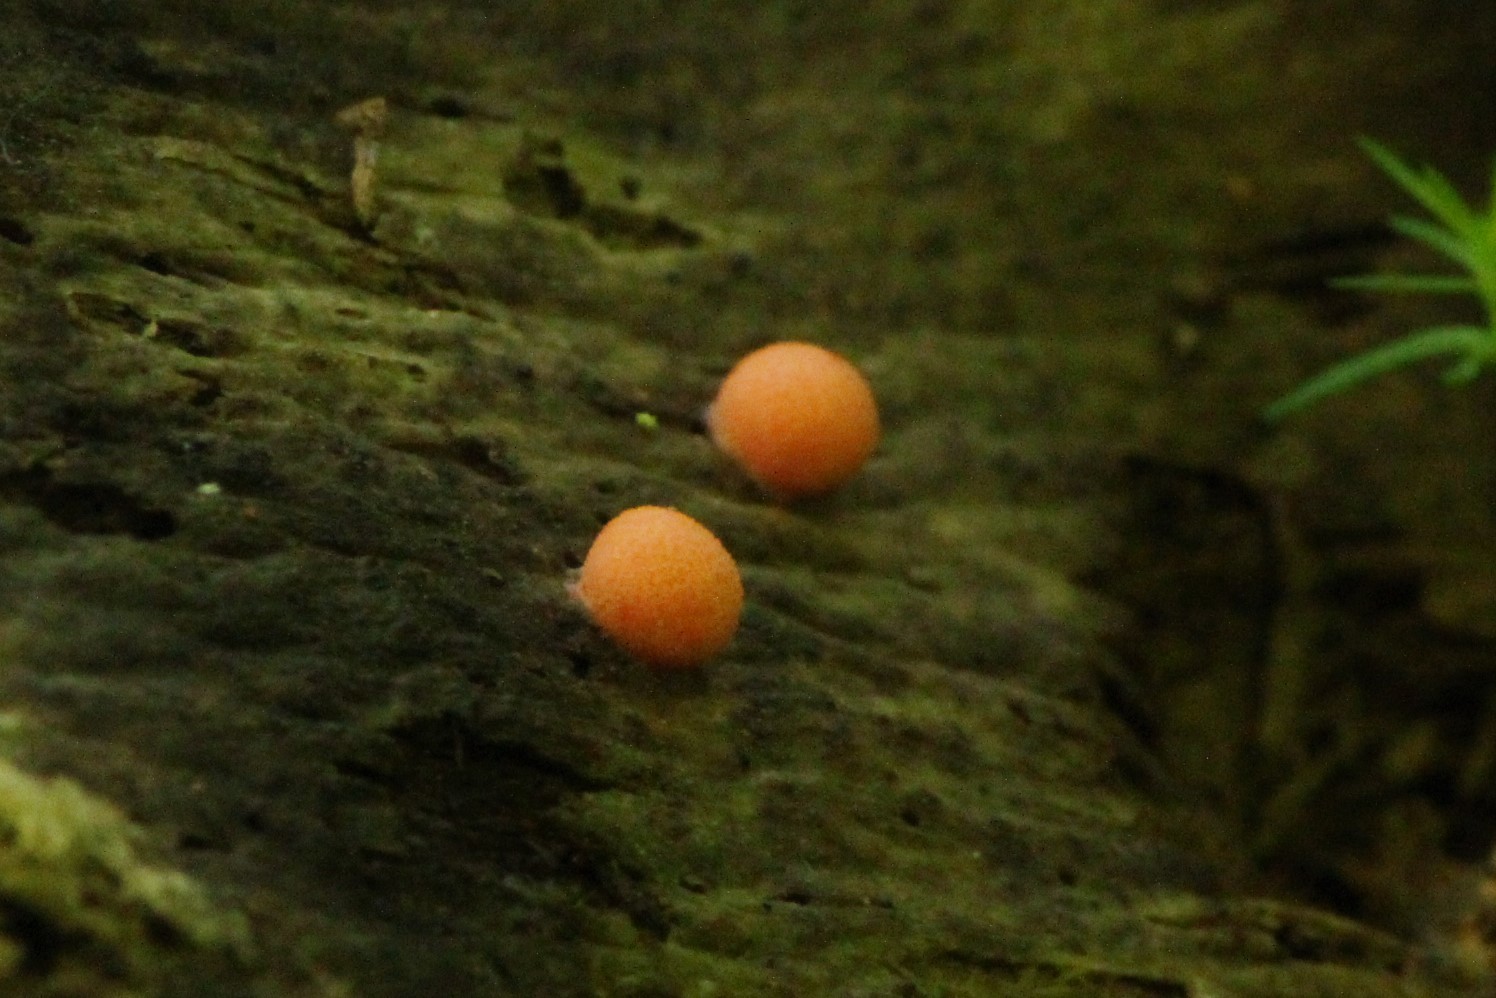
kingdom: Protozoa
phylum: Mycetozoa
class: Myxomycetes
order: Cribrariales
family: Tubiferaceae
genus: Lycogala
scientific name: Lycogala epidendrum
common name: Wolf's milk
